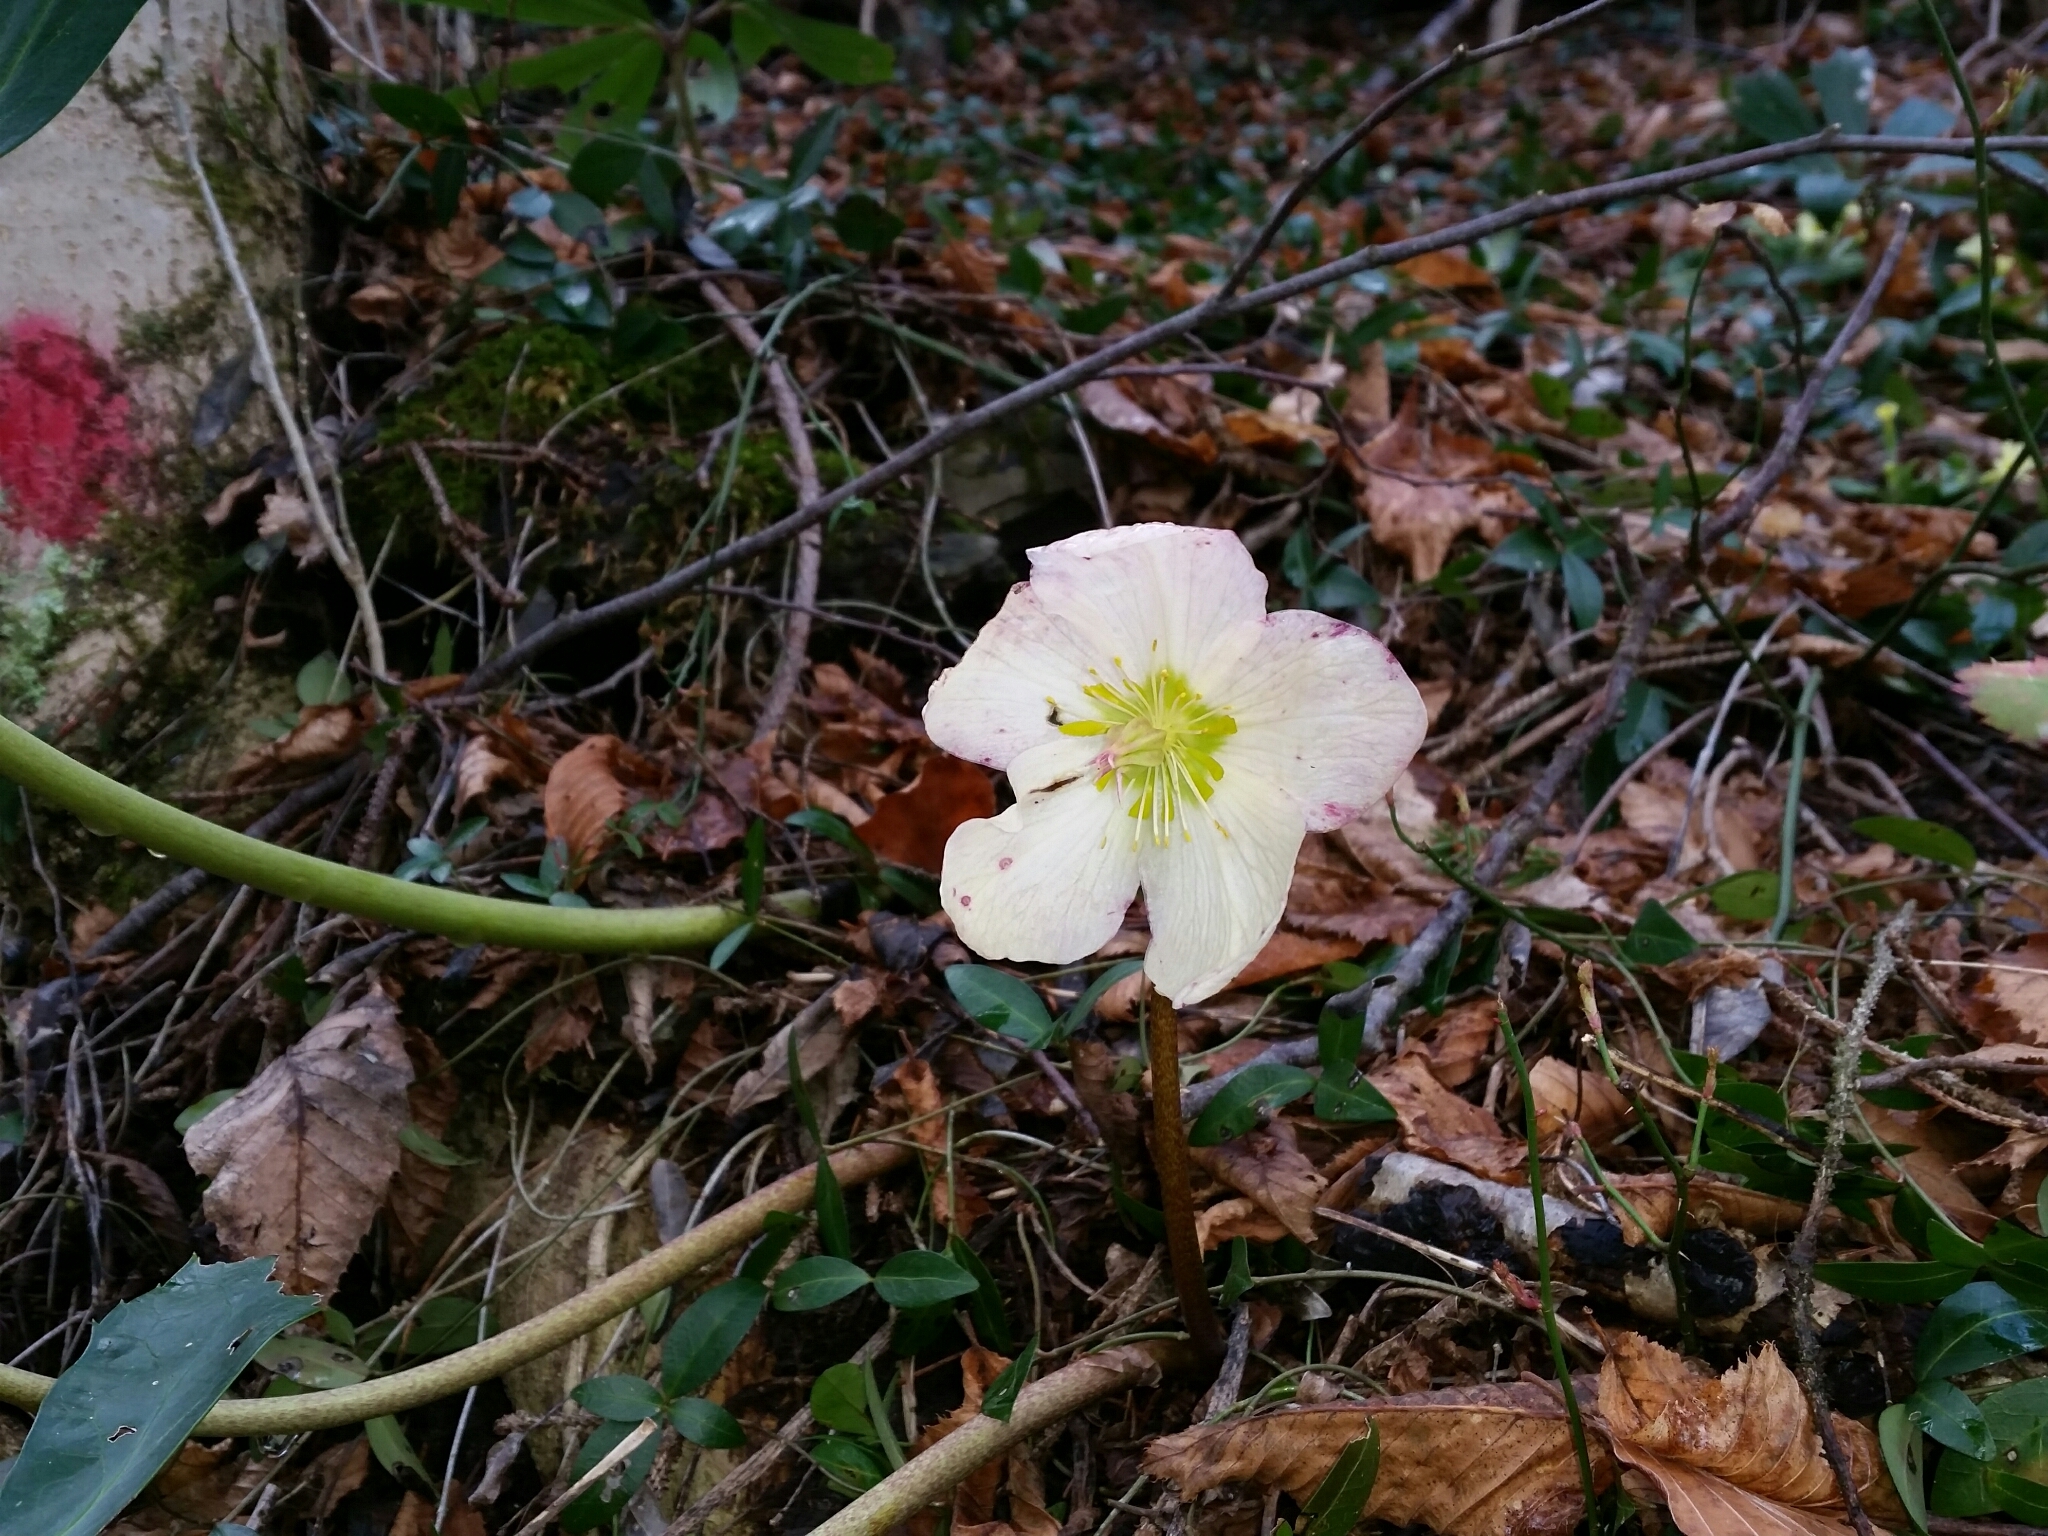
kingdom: Plantae
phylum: Tracheophyta
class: Magnoliopsida
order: Ranunculales
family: Ranunculaceae
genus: Helleborus
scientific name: Helleborus niger
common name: Black hellebore
